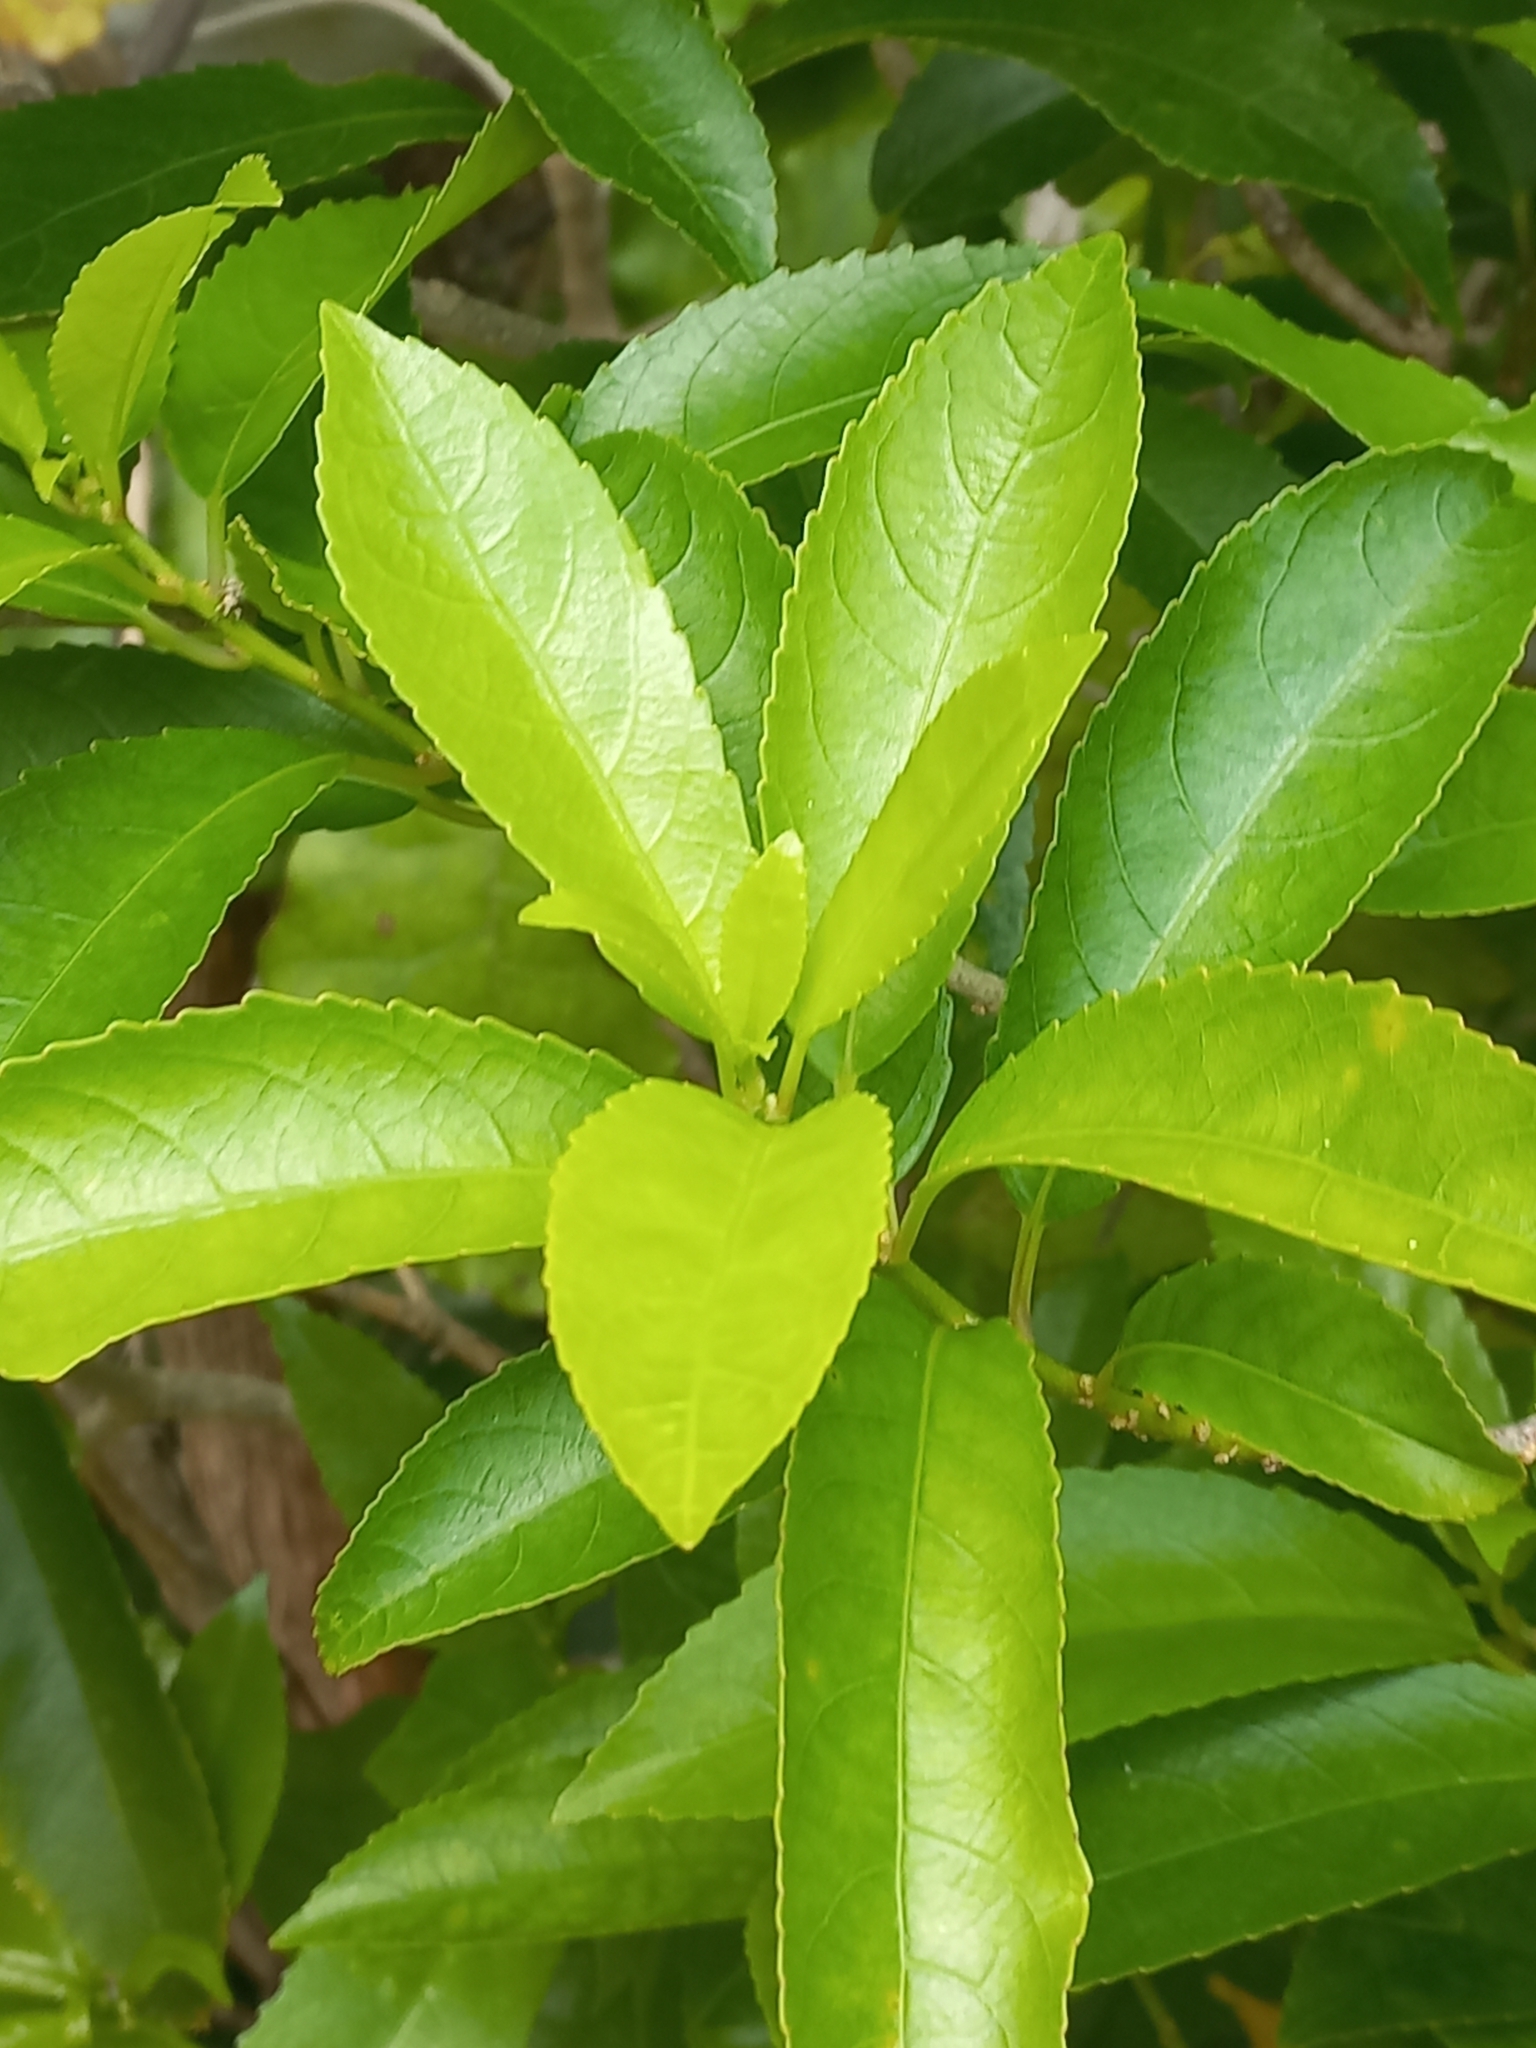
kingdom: Plantae
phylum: Tracheophyta
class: Magnoliopsida
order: Malpighiales
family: Violaceae
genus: Melicytus
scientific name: Melicytus ramiflorus
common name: Mahoe
